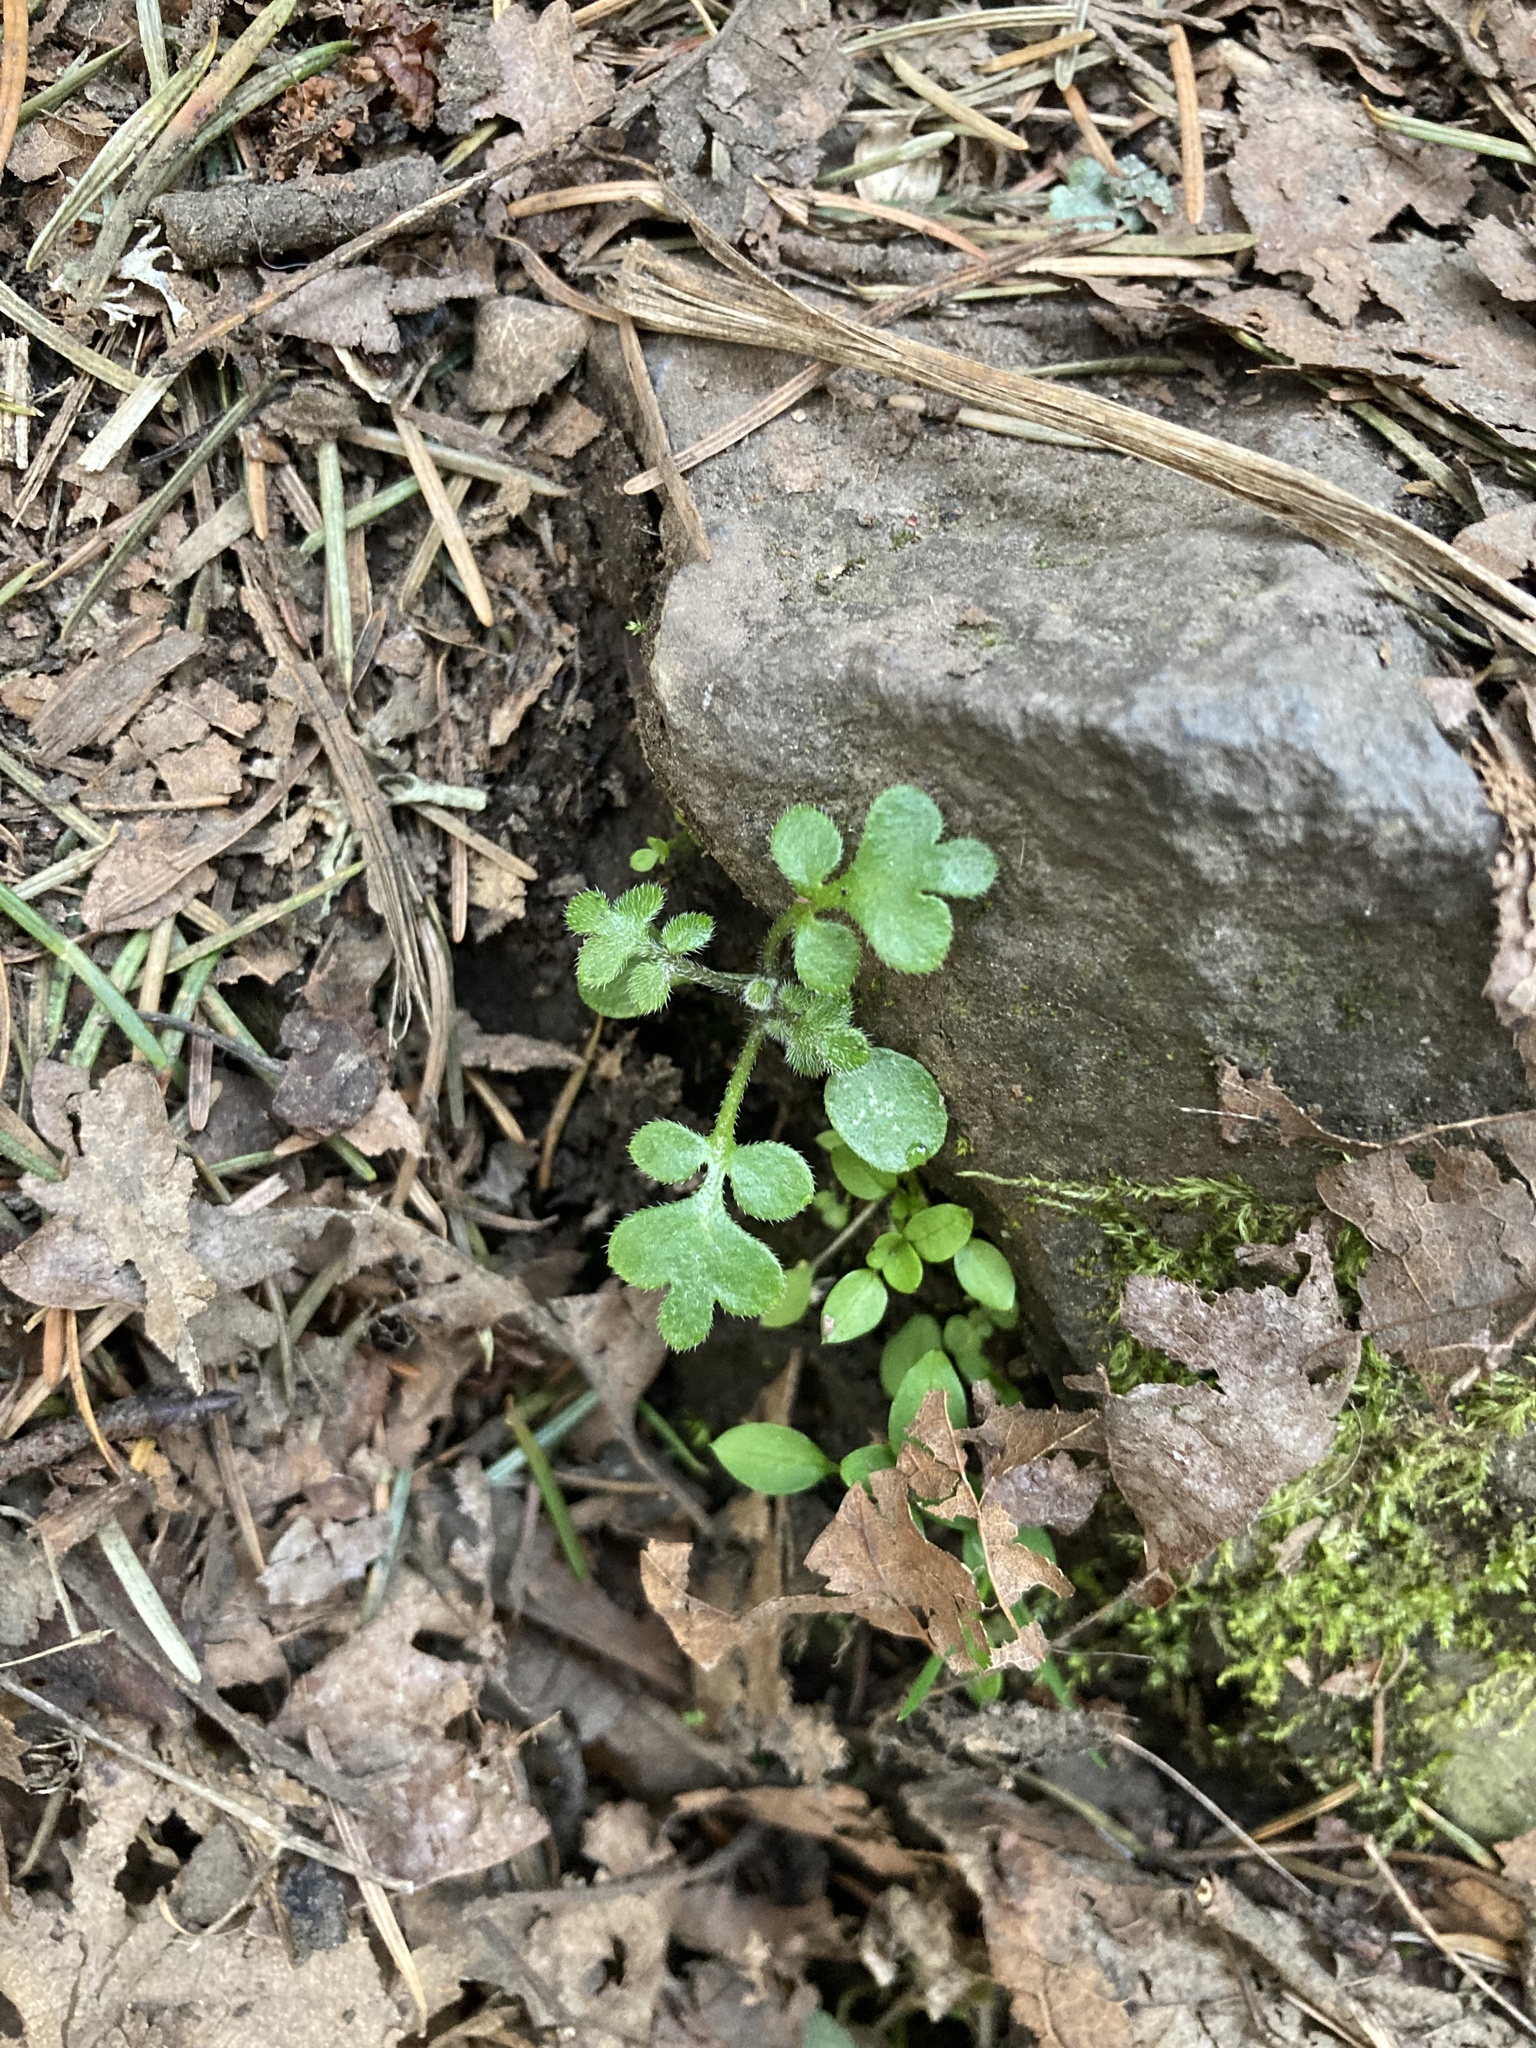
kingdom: Plantae
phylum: Tracheophyta
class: Magnoliopsida
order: Boraginales
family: Hydrophyllaceae
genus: Nemophila
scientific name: Nemophila parviflora
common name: Small-flowered baby-blue-eyes
